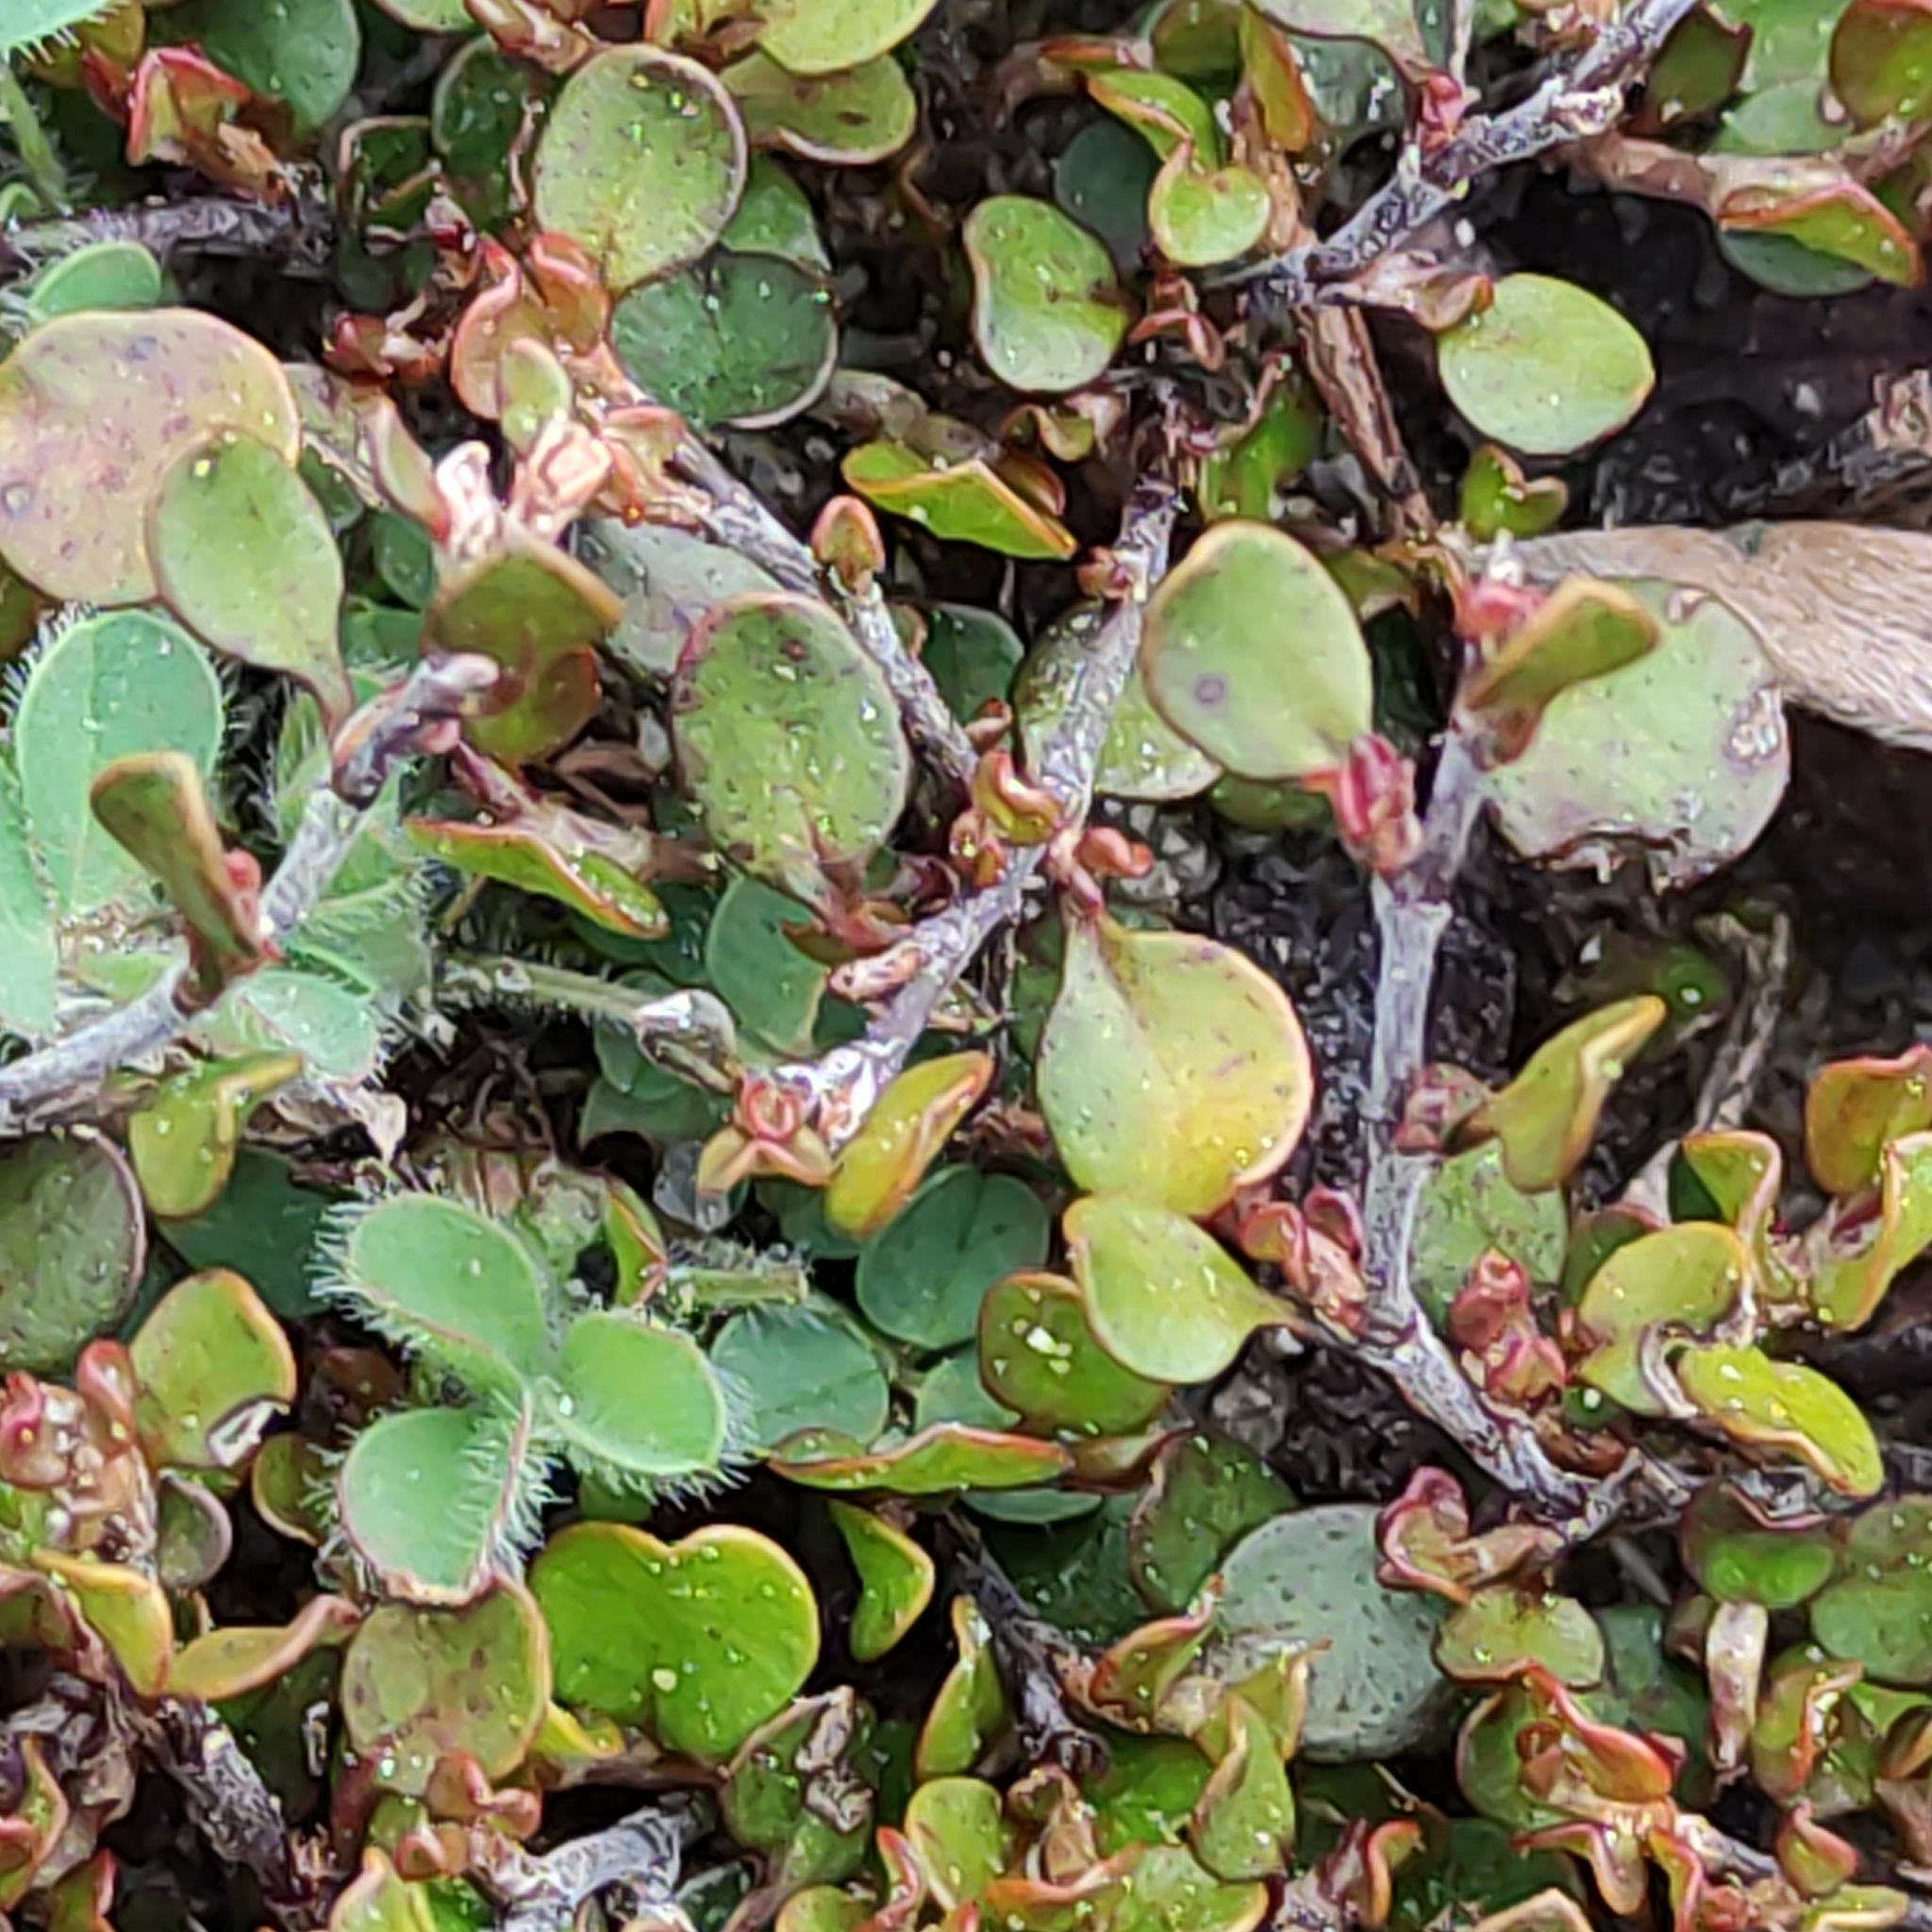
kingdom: Plantae
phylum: Tracheophyta
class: Magnoliopsida
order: Caryophyllales
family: Polygonaceae
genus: Muehlenbeckia
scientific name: Muehlenbeckia axillaris
